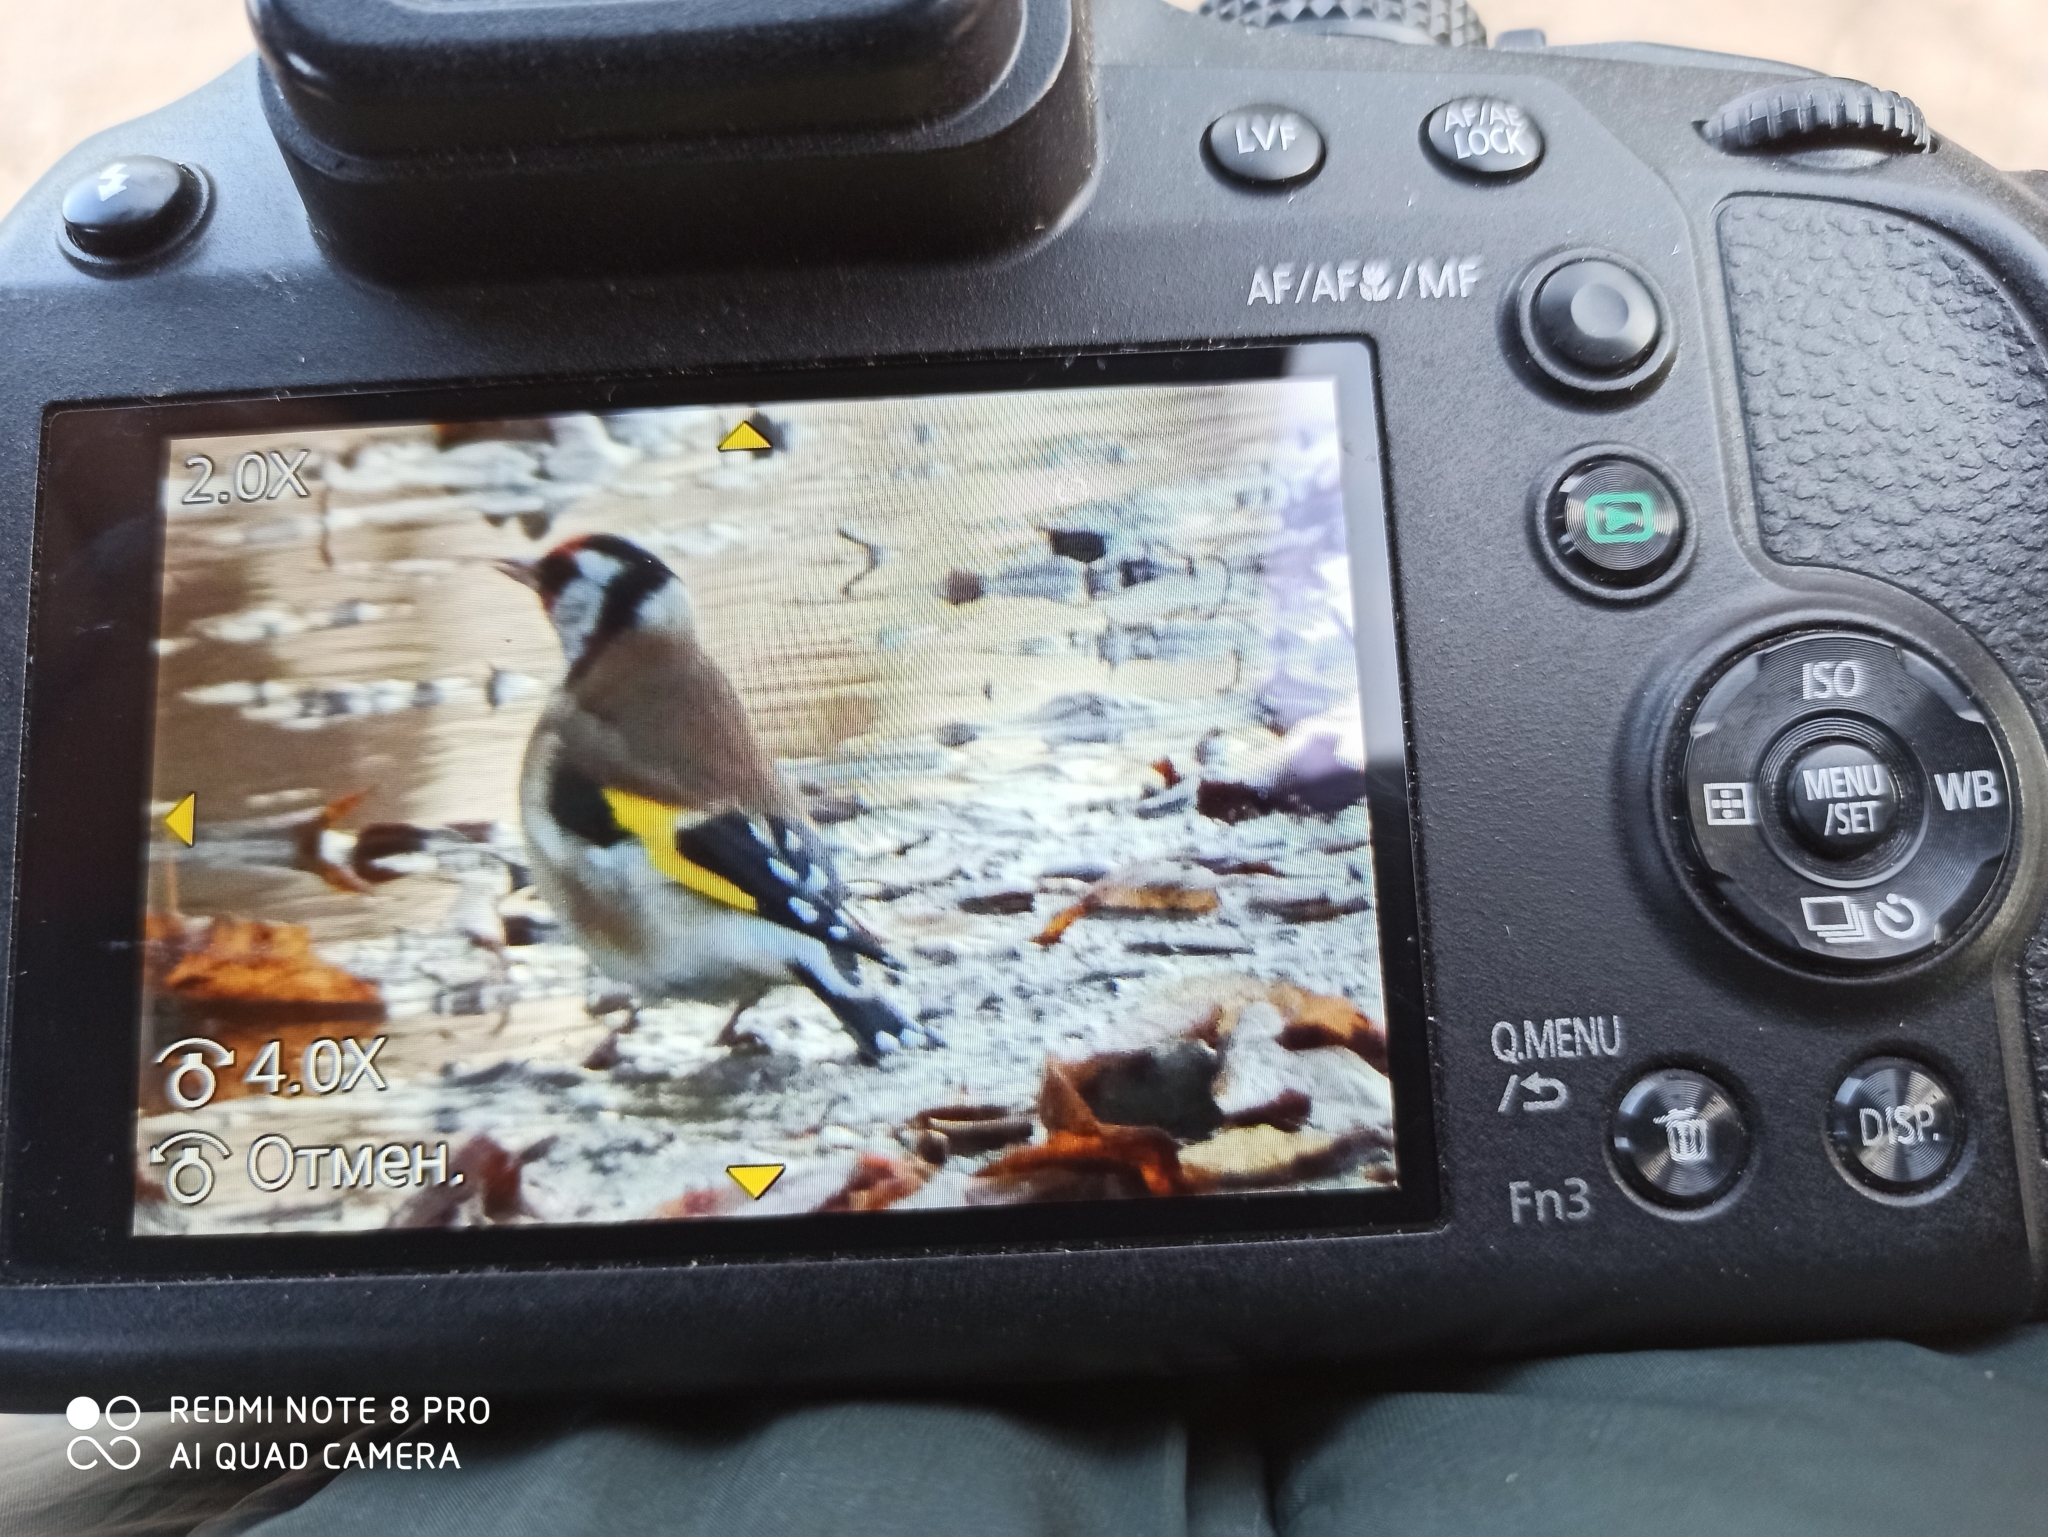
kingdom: Animalia
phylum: Chordata
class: Aves
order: Passeriformes
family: Fringillidae
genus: Carduelis
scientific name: Carduelis carduelis
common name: European goldfinch
